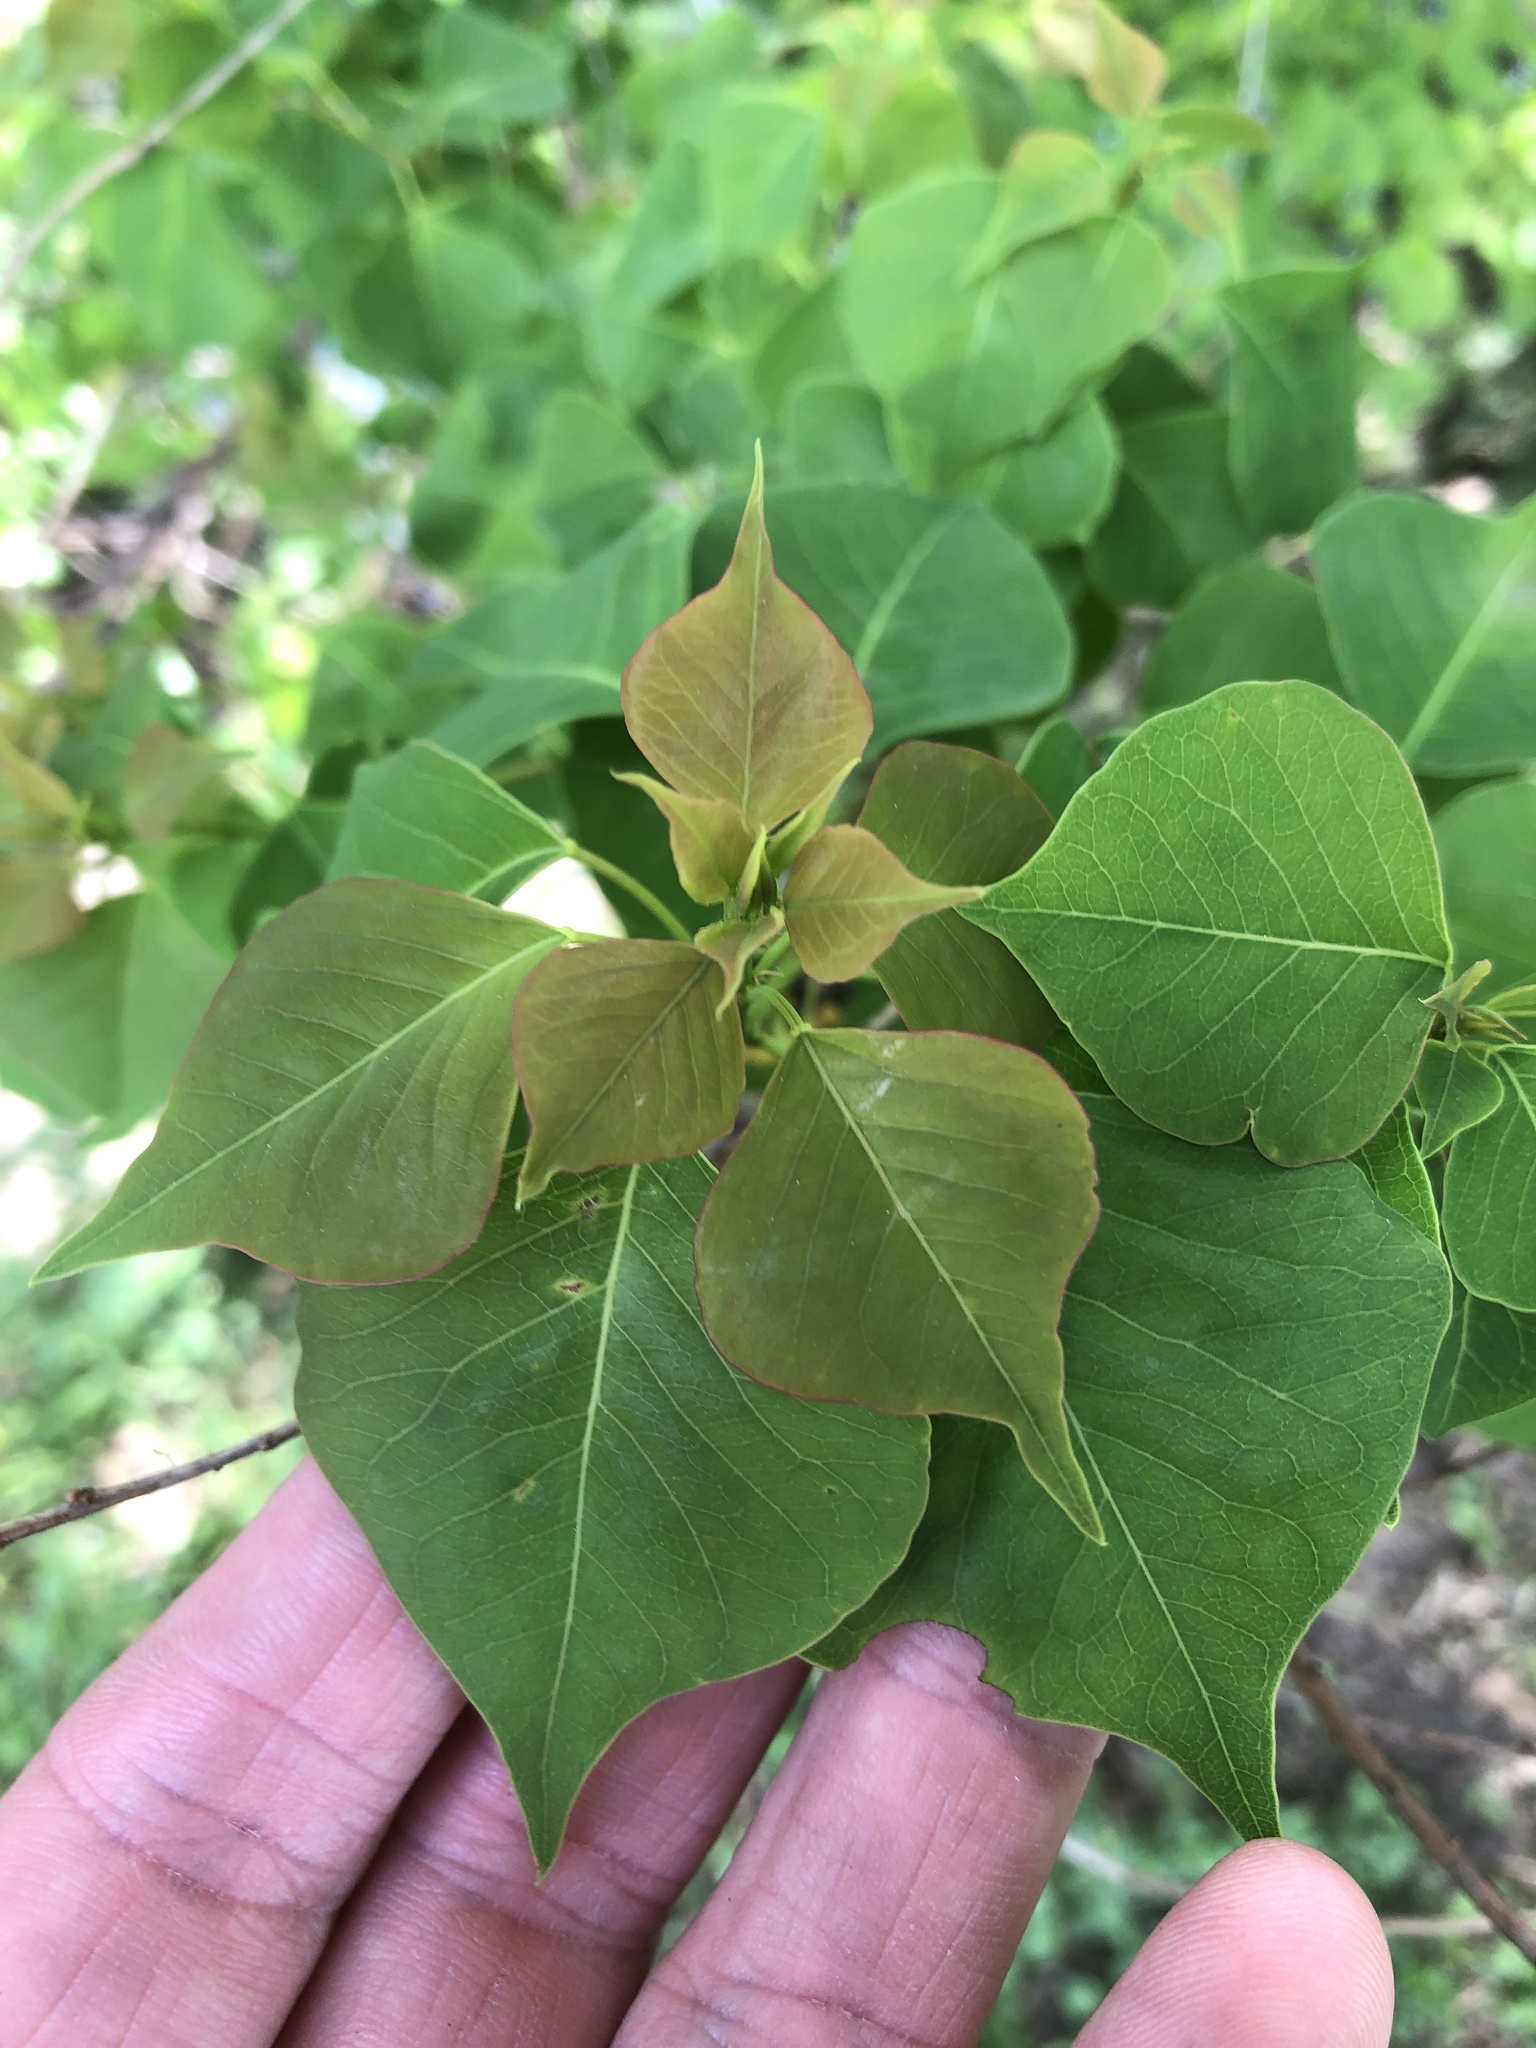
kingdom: Plantae
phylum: Tracheophyta
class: Magnoliopsida
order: Malpighiales
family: Euphorbiaceae
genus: Triadica
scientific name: Triadica sebifera
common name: Chinese tallow
